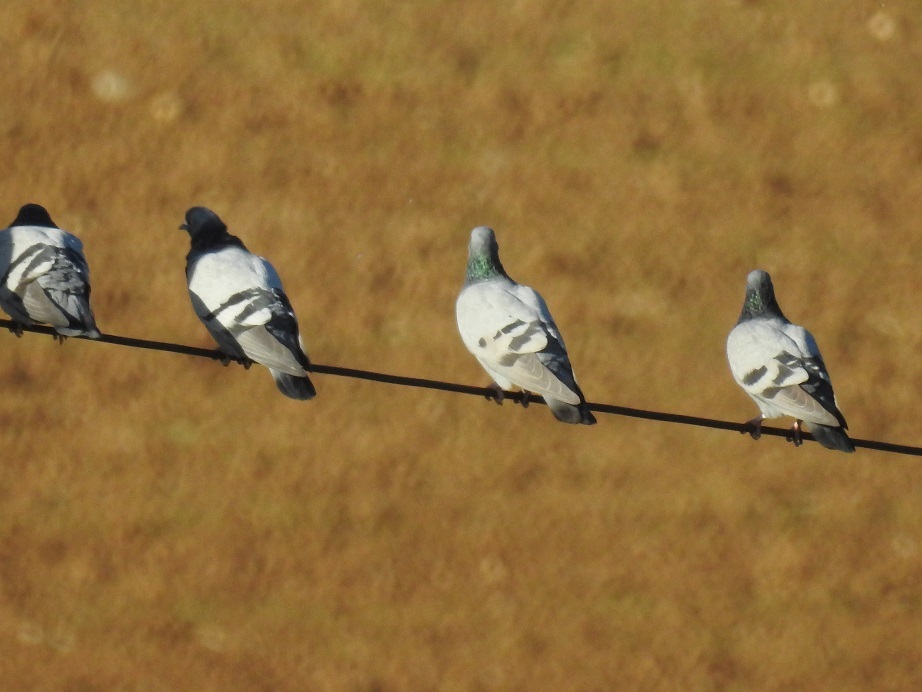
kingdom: Animalia
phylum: Chordata
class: Aves
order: Columbiformes
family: Columbidae
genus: Columba
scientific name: Columba livia
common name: Rock pigeon
